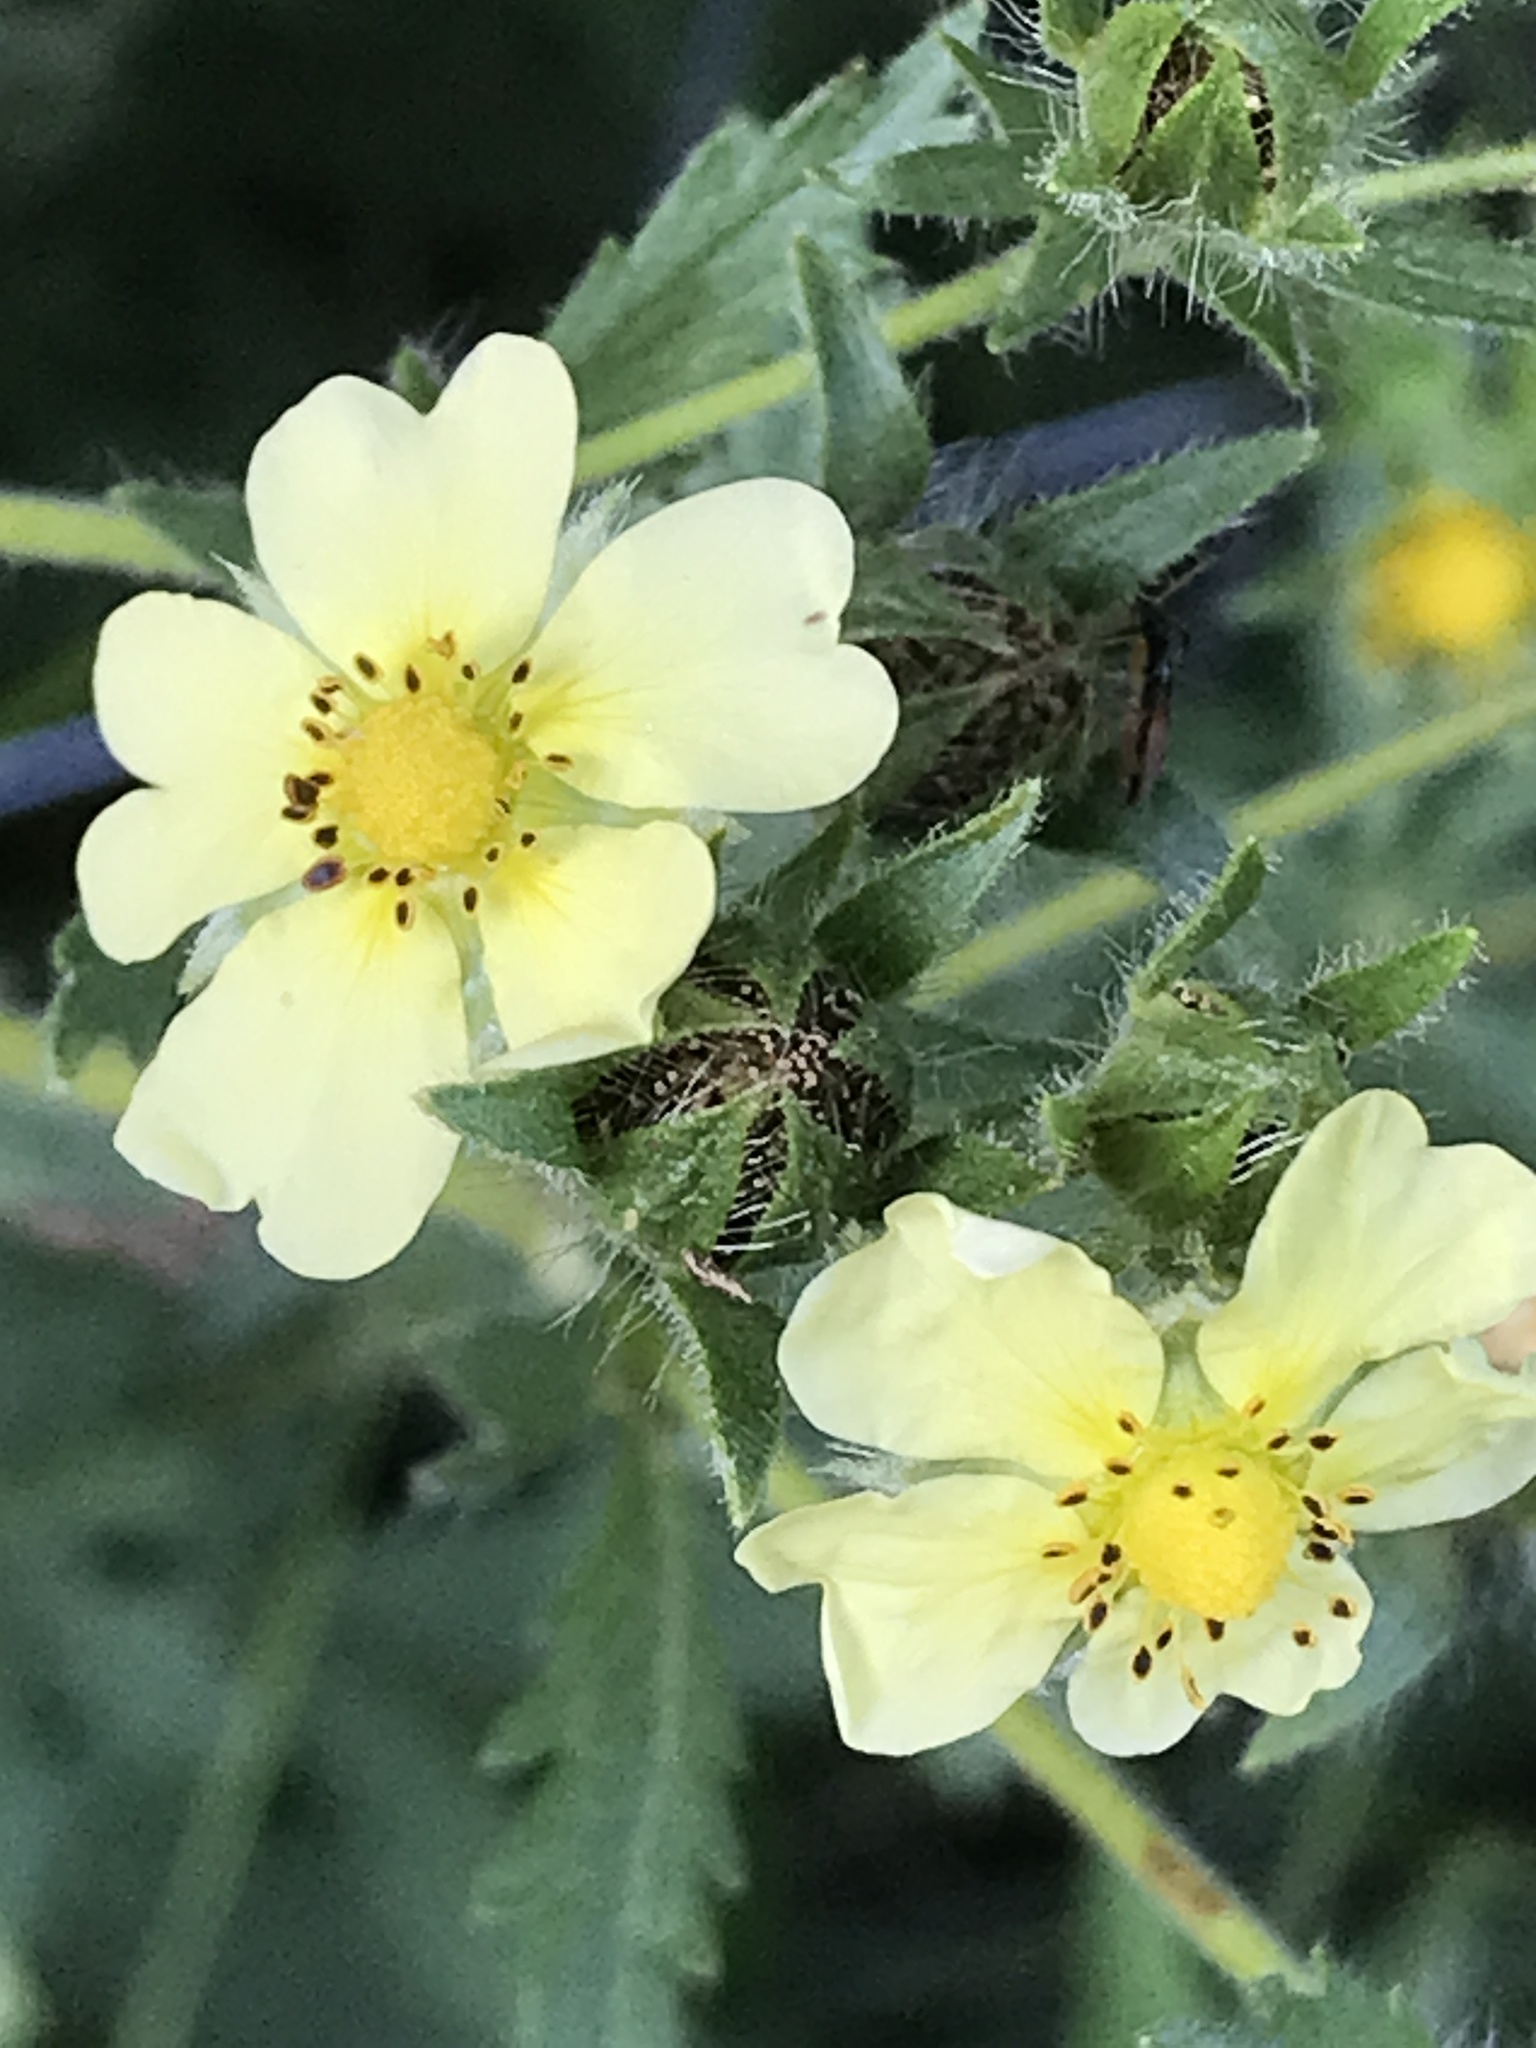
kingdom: Plantae
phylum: Tracheophyta
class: Magnoliopsida
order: Rosales
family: Rosaceae
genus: Potentilla
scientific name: Potentilla recta
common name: Sulphur cinquefoil
